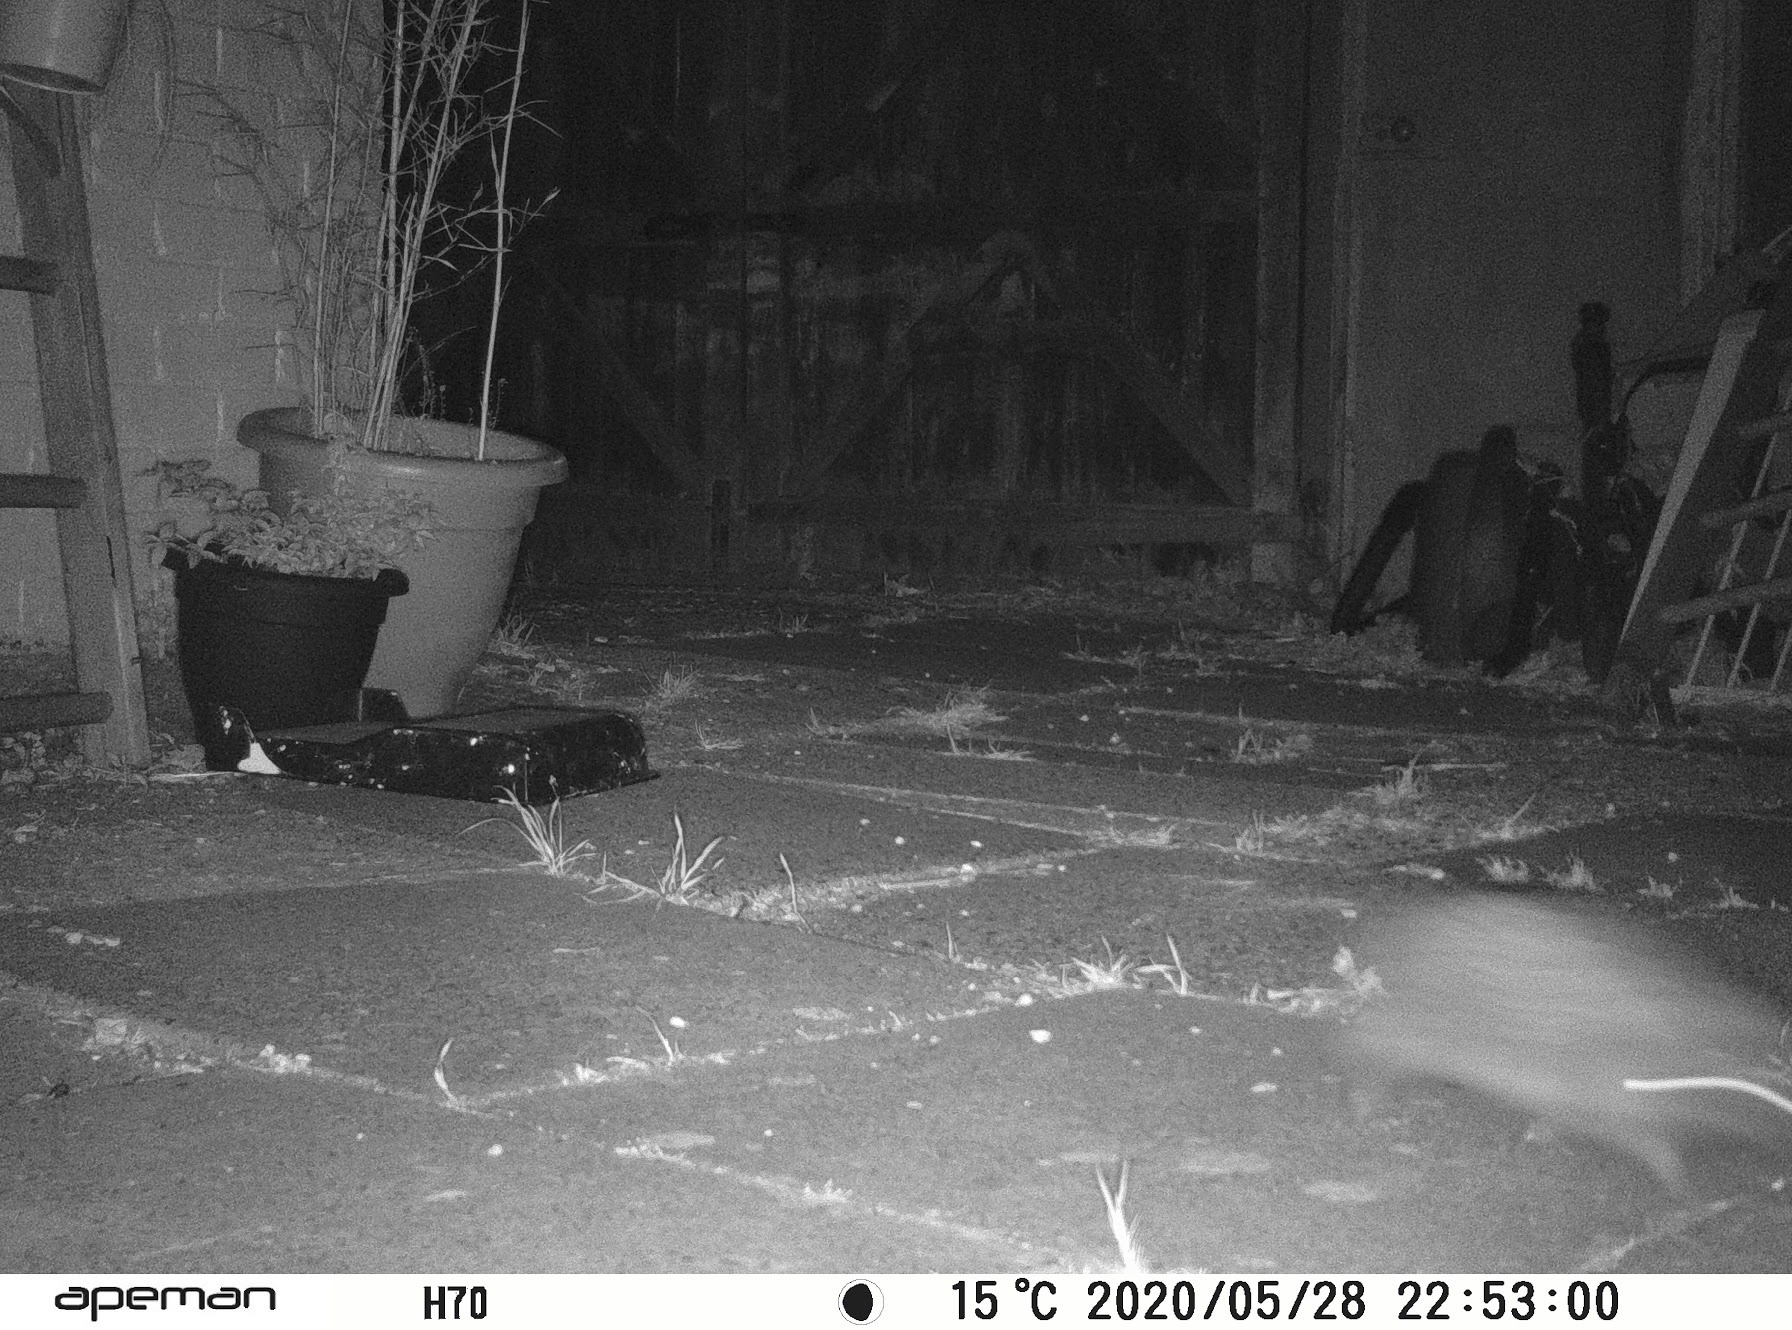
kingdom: Animalia
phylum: Chordata
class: Mammalia
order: Erinaceomorpha
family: Erinaceidae
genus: Erinaceus
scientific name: Erinaceus europaeus
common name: West european hedgehog
